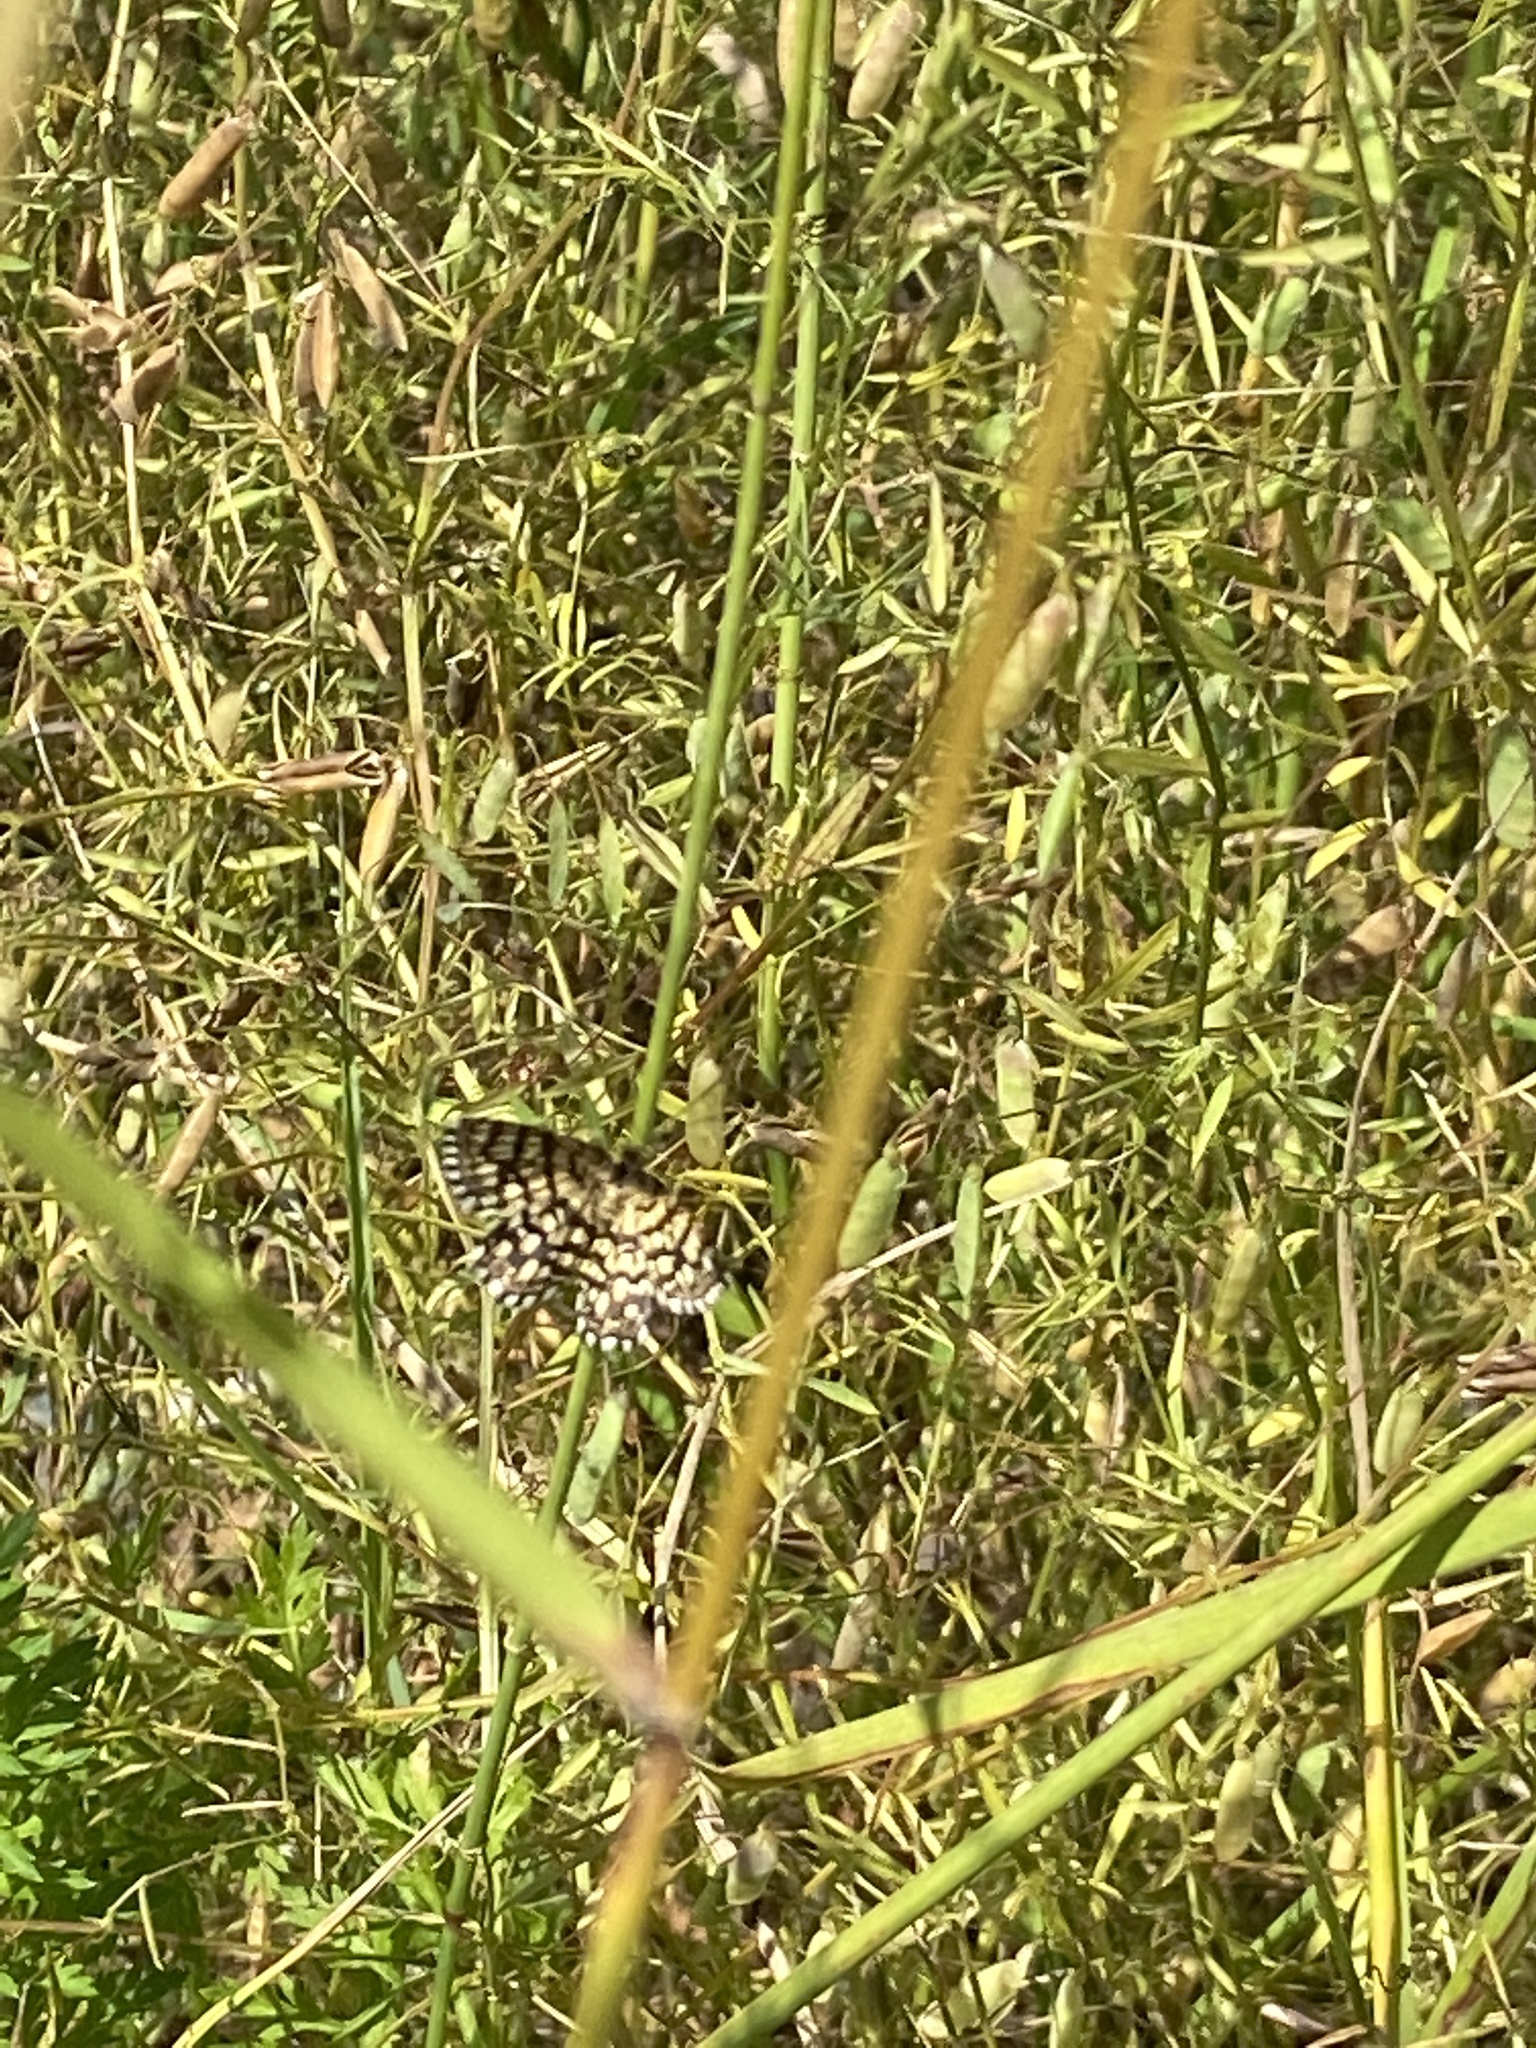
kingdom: Animalia
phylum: Arthropoda
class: Insecta
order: Lepidoptera
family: Geometridae
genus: Chiasmia
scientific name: Chiasmia clathrata
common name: Latticed heath
